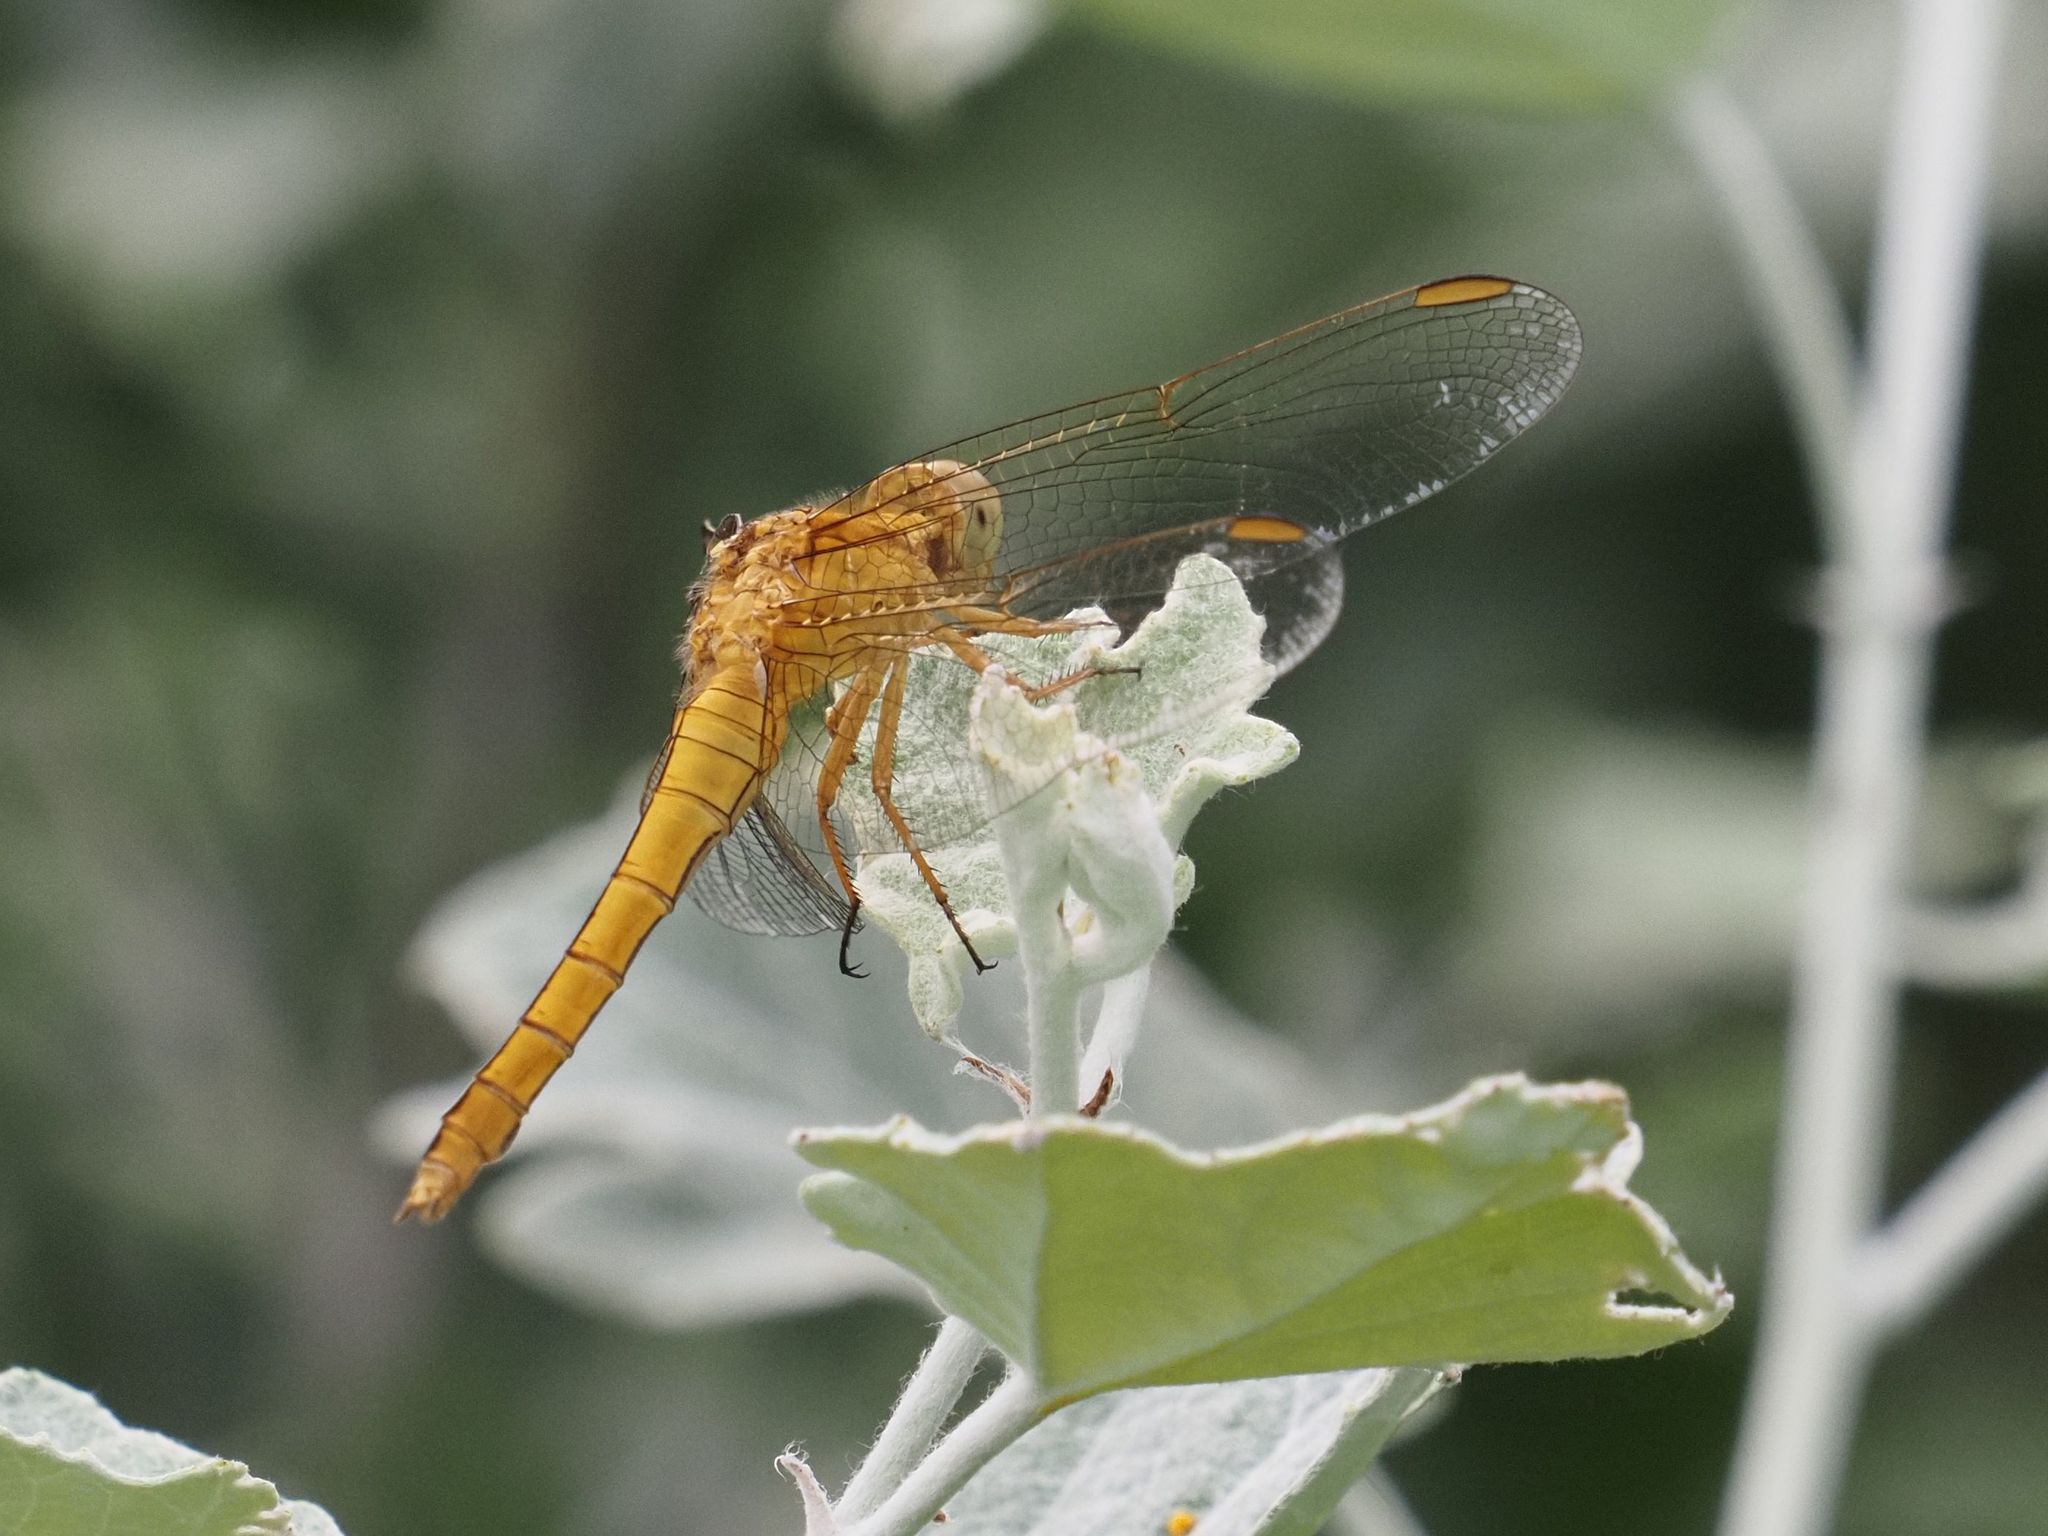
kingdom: Animalia
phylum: Arthropoda
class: Insecta
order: Odonata
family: Libellulidae
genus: Orthetrum
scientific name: Orthetrum coerulescens
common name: Keeled skimmer
